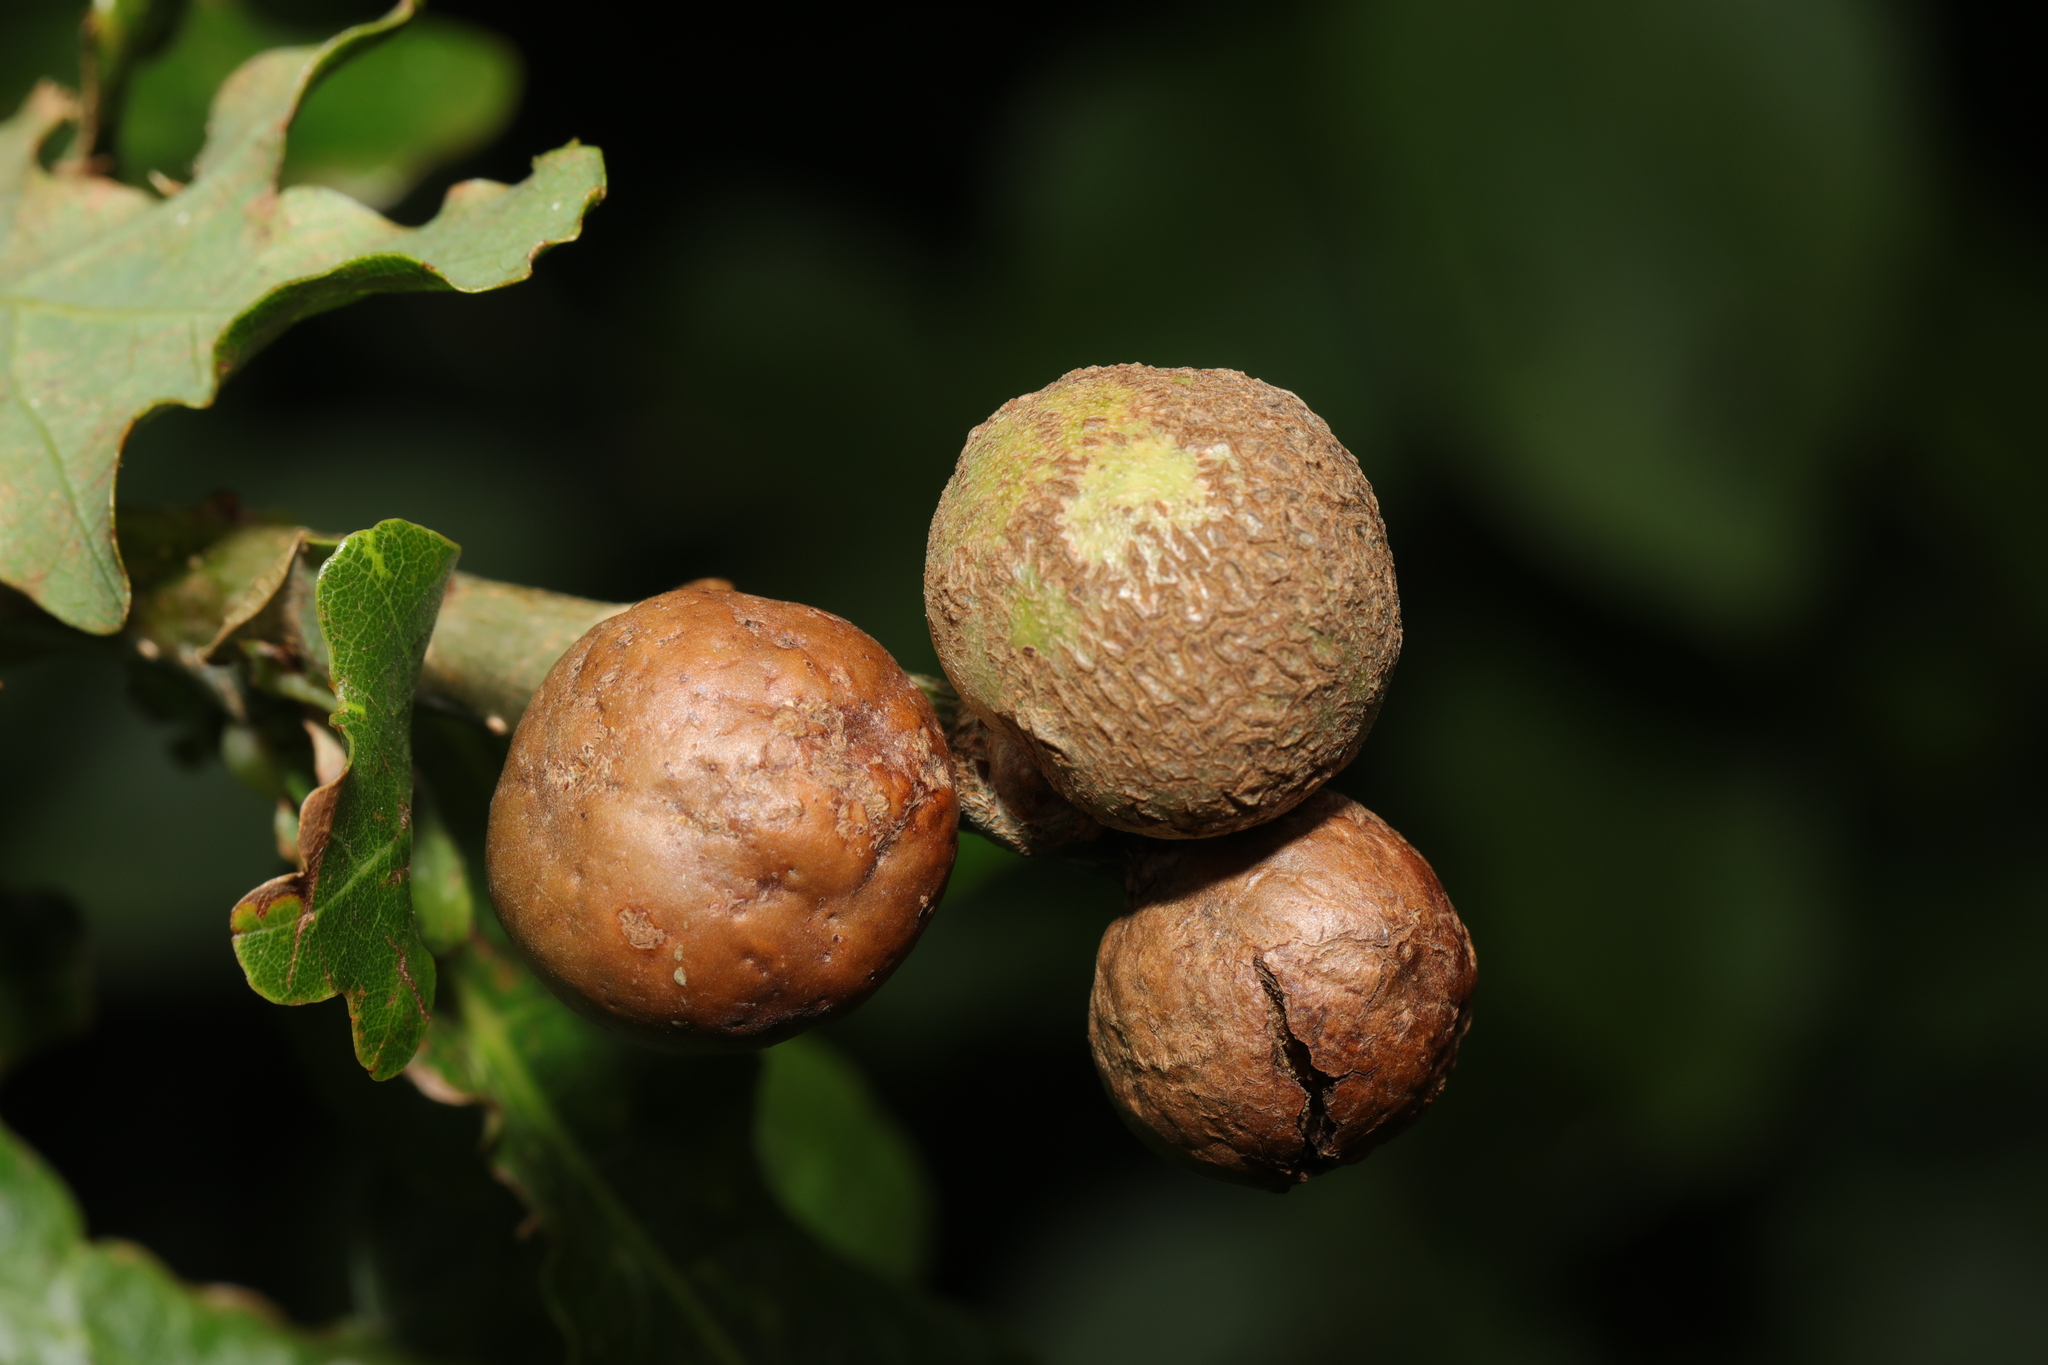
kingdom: Animalia
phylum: Arthropoda
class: Insecta
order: Hymenoptera
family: Cynipidae
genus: Andricus
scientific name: Andricus kollari
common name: Marble gall
